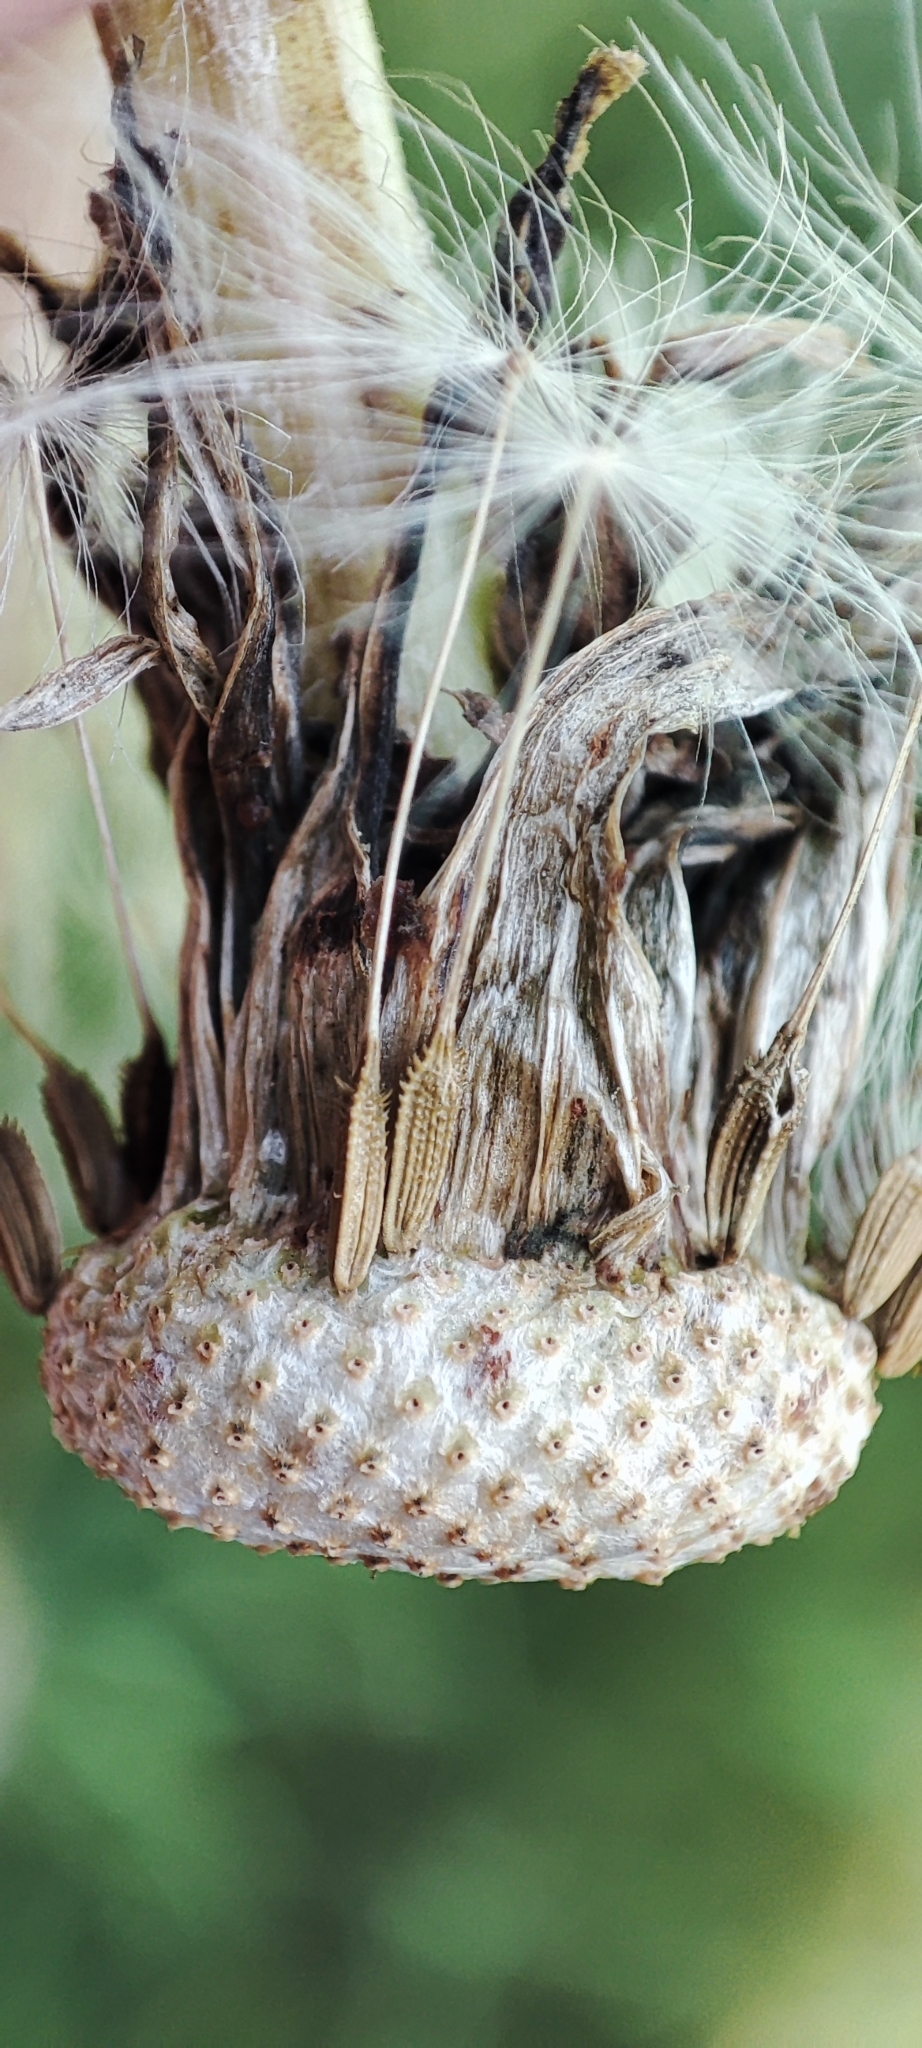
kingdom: Plantae
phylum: Tracheophyta
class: Magnoliopsida
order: Asterales
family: Asteraceae
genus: Taraxacum
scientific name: Taraxacum officinale
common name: Common dandelion
